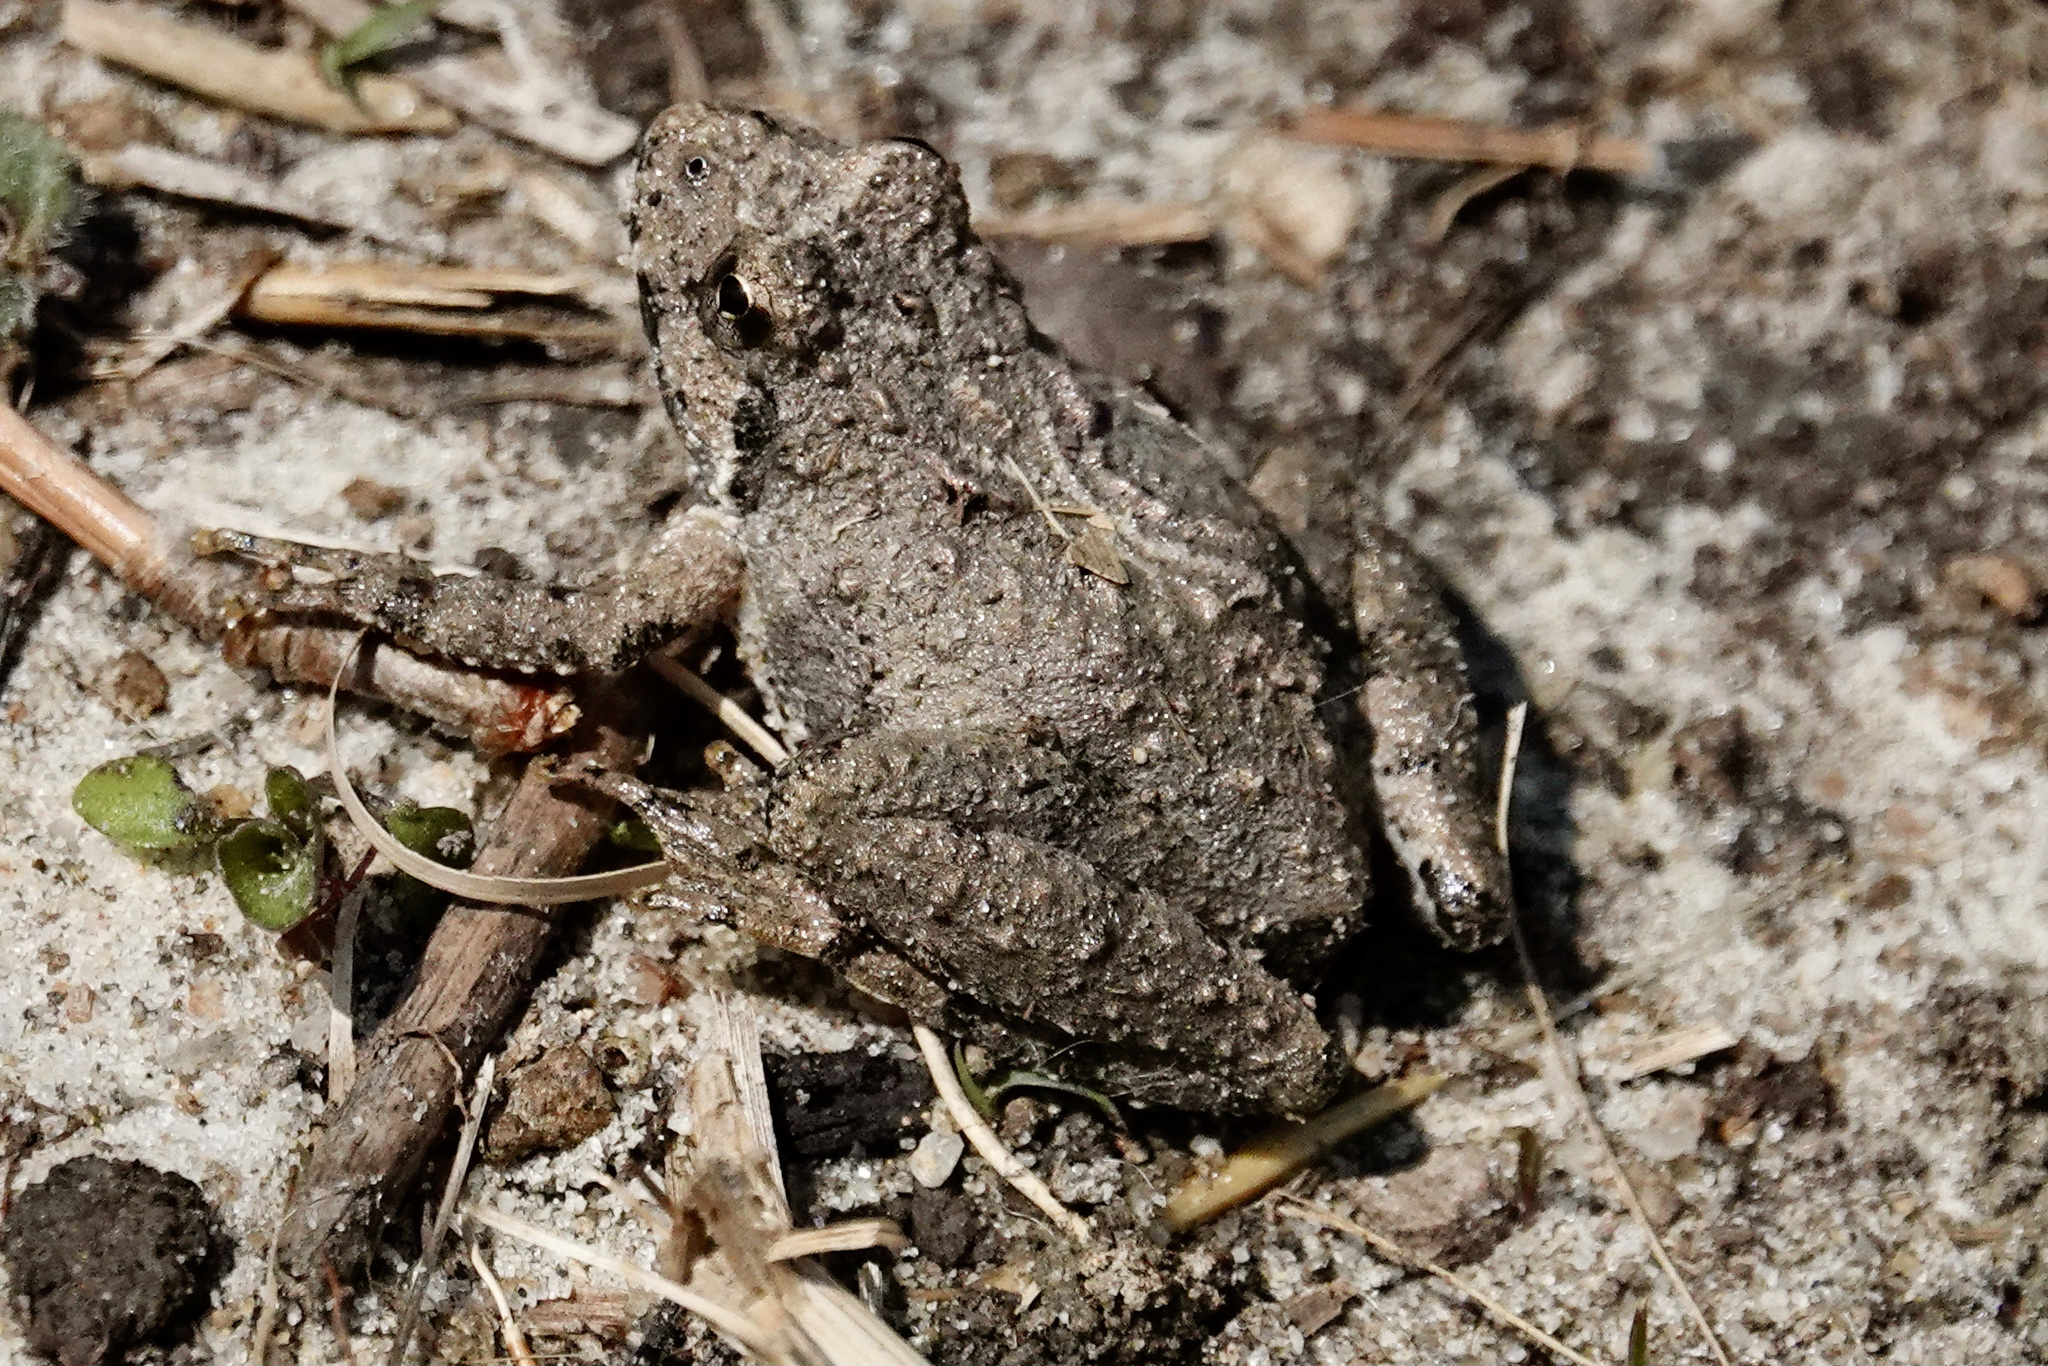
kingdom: Animalia
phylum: Chordata
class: Amphibia
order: Anura
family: Hylidae
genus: Acris
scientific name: Acris crepitans
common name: Northern cricket frog
